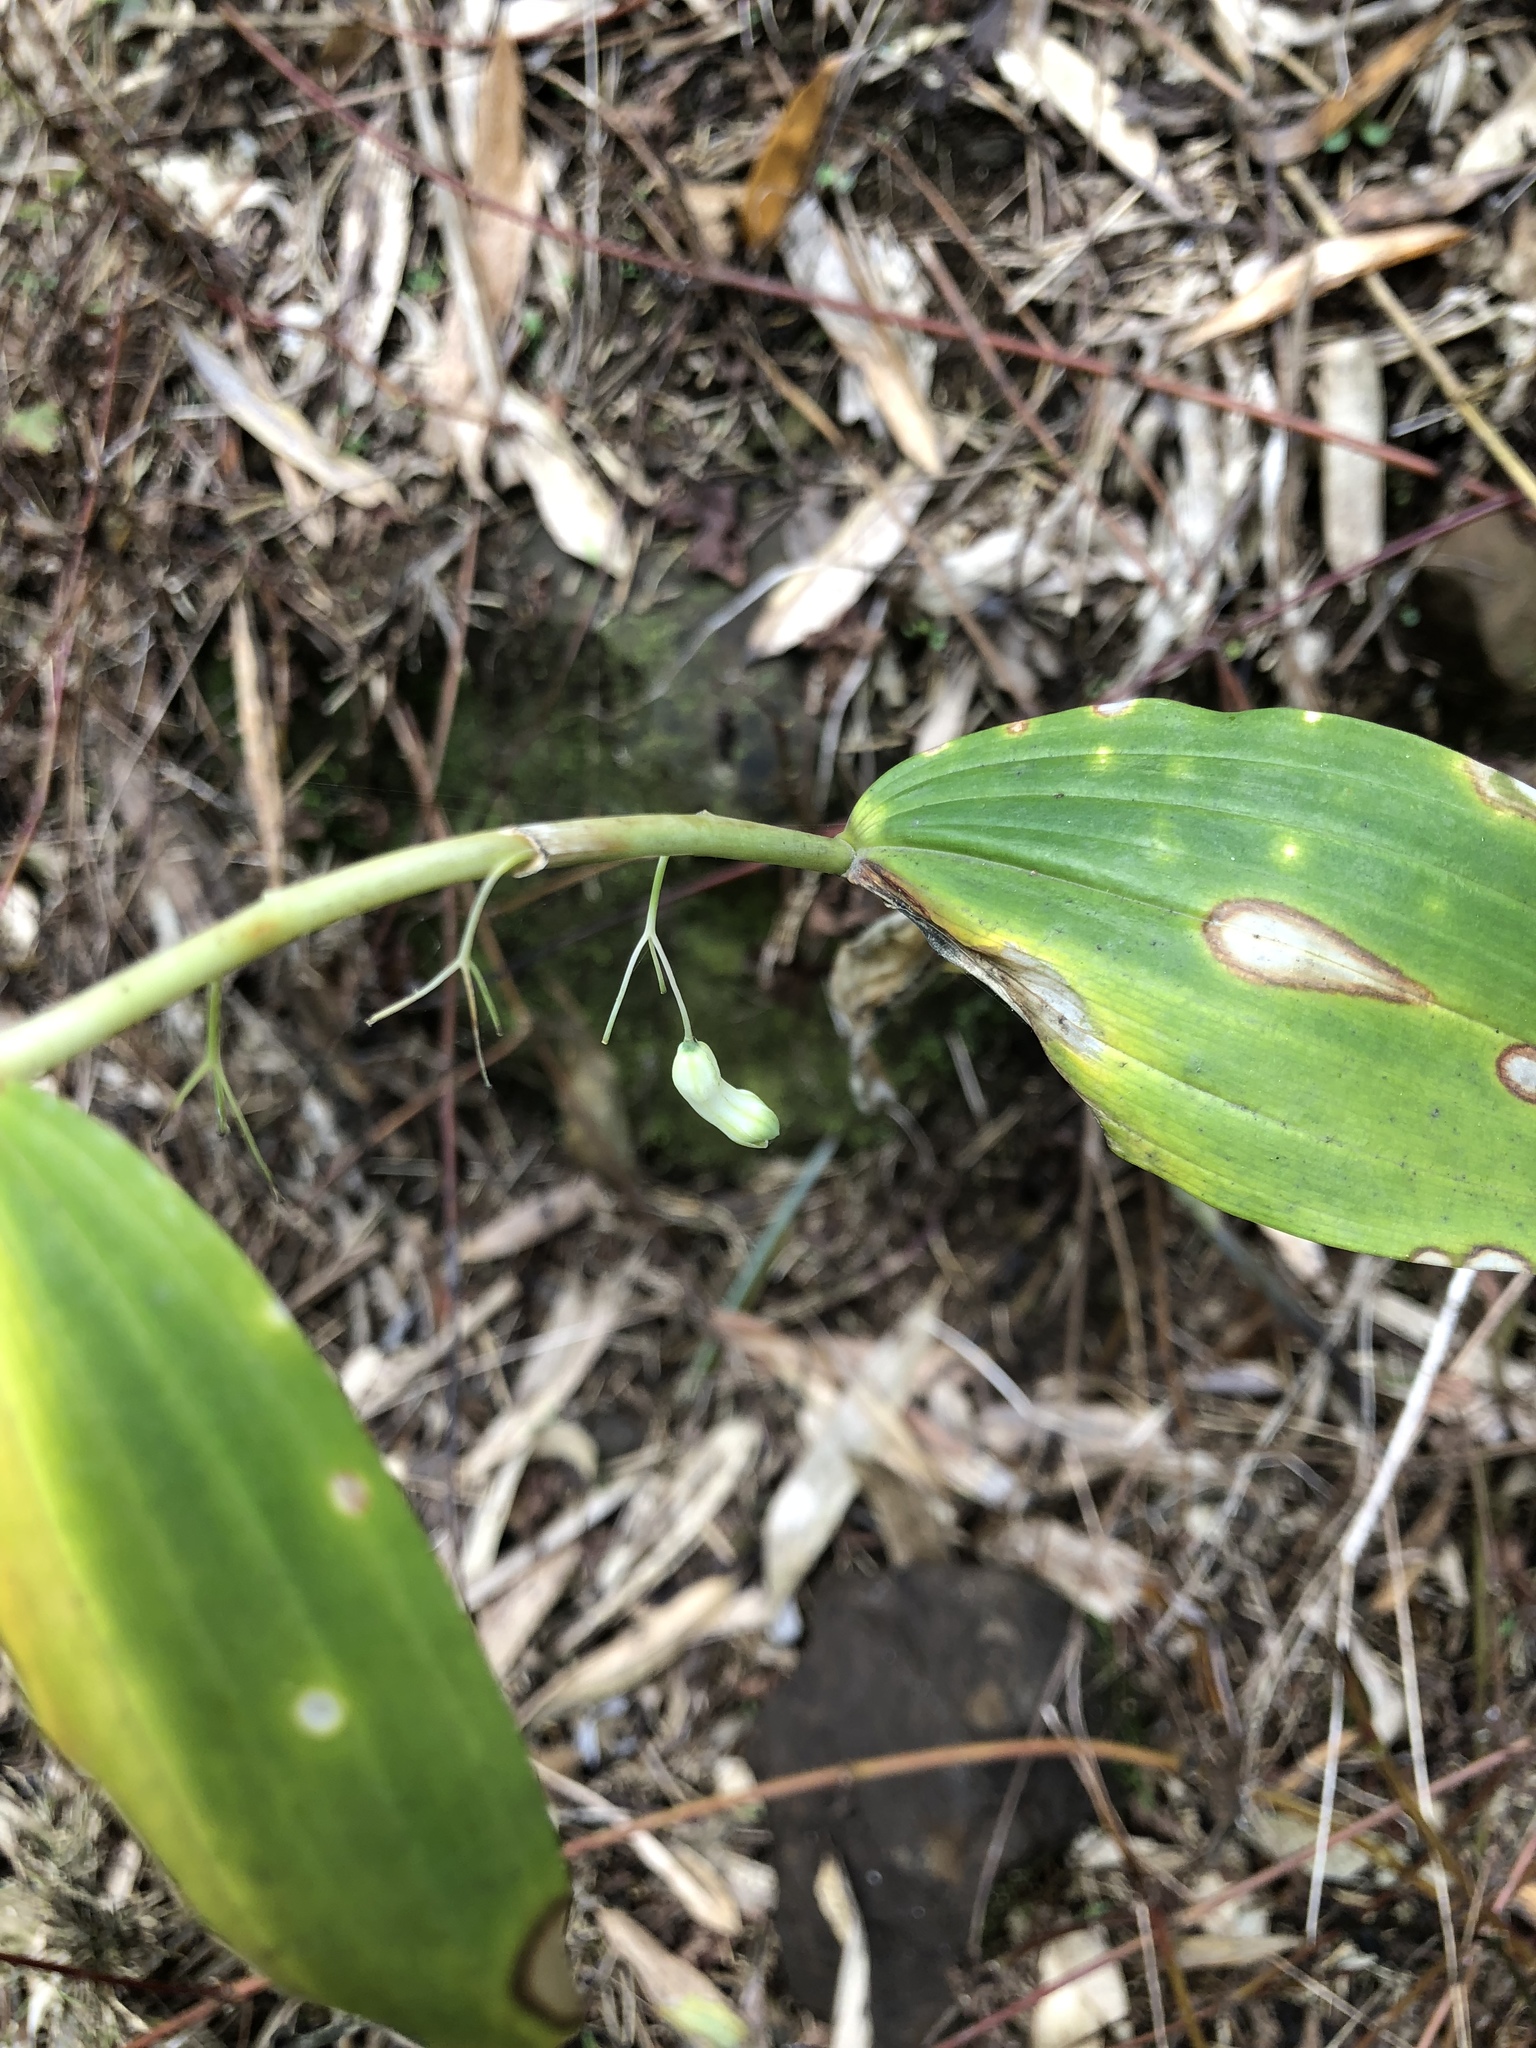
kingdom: Plantae
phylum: Tracheophyta
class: Liliopsida
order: Asparagales
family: Asparagaceae
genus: Polygonatum
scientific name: Polygonatum arisanense
